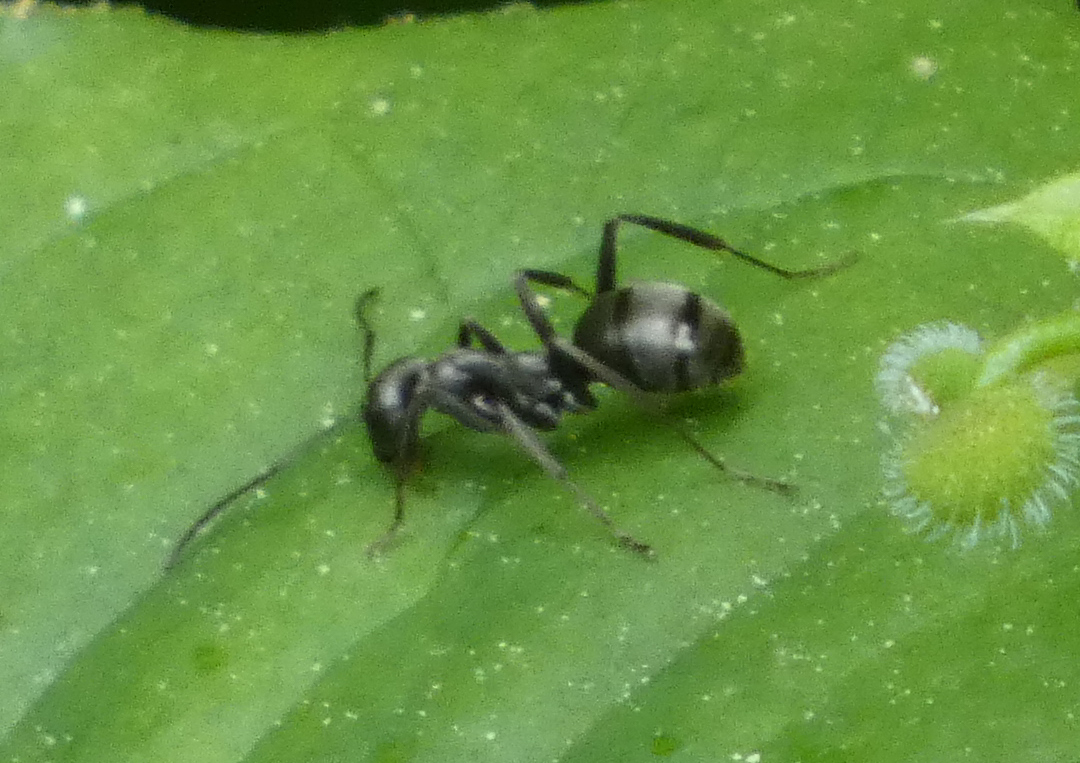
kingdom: Animalia
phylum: Arthropoda
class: Insecta
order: Hymenoptera
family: Formicidae
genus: Formica
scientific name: Formica
